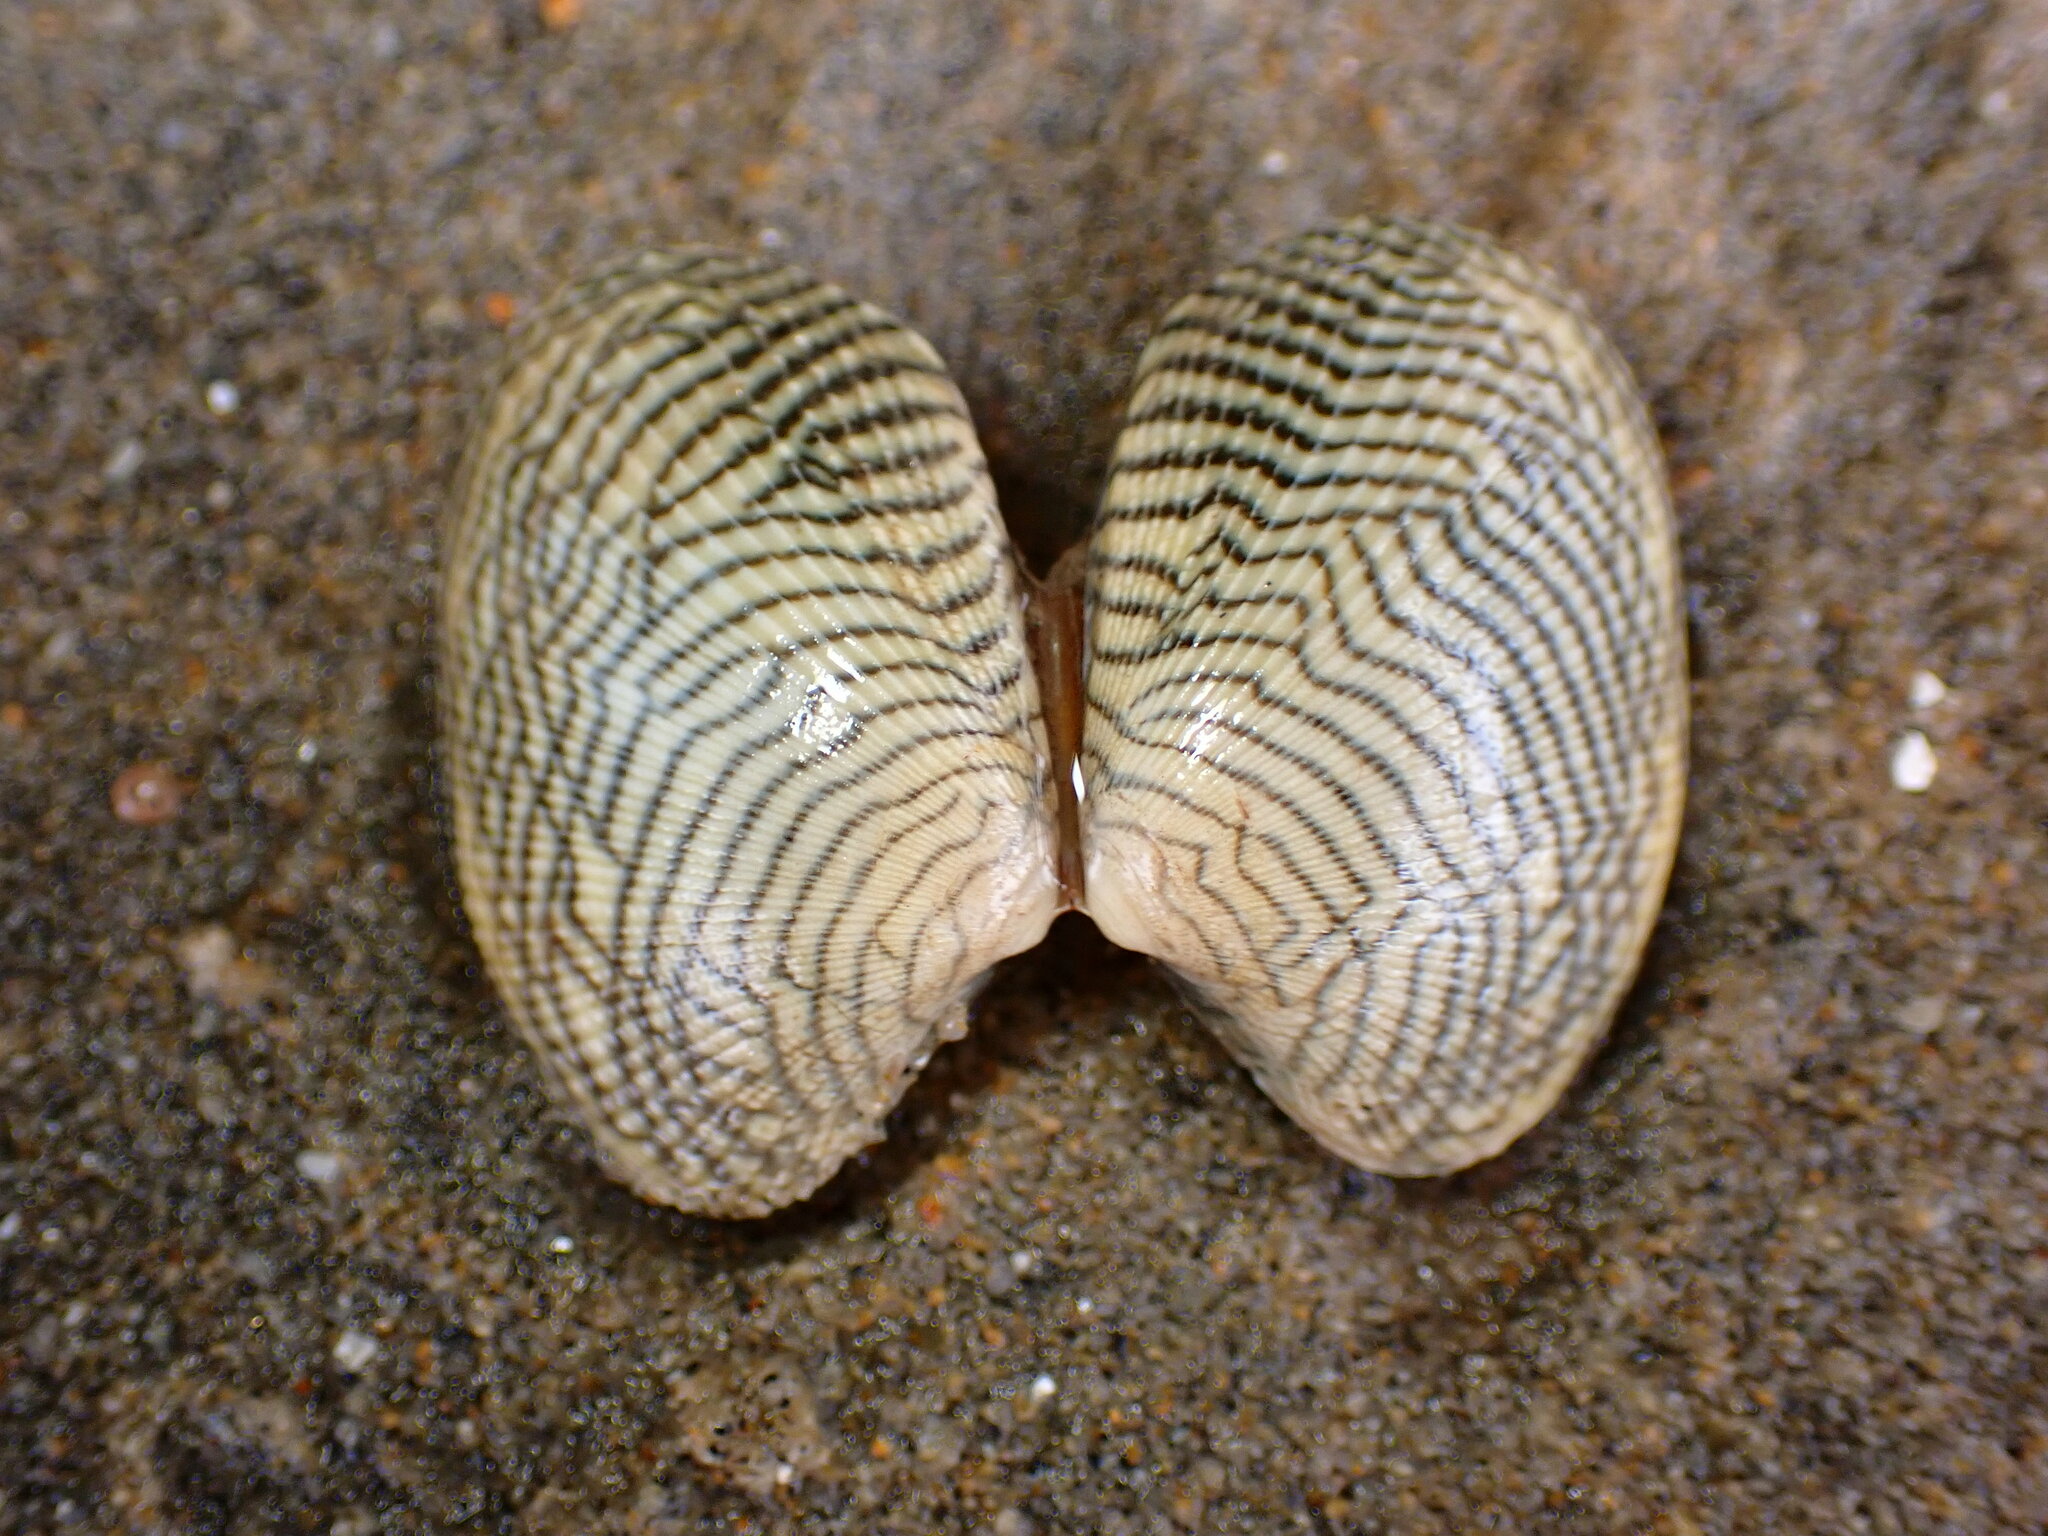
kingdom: Animalia
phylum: Mollusca
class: Bivalvia
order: Venerida
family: Veneridae
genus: Ruditapes
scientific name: Ruditapes philippinarum
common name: Manila clam
